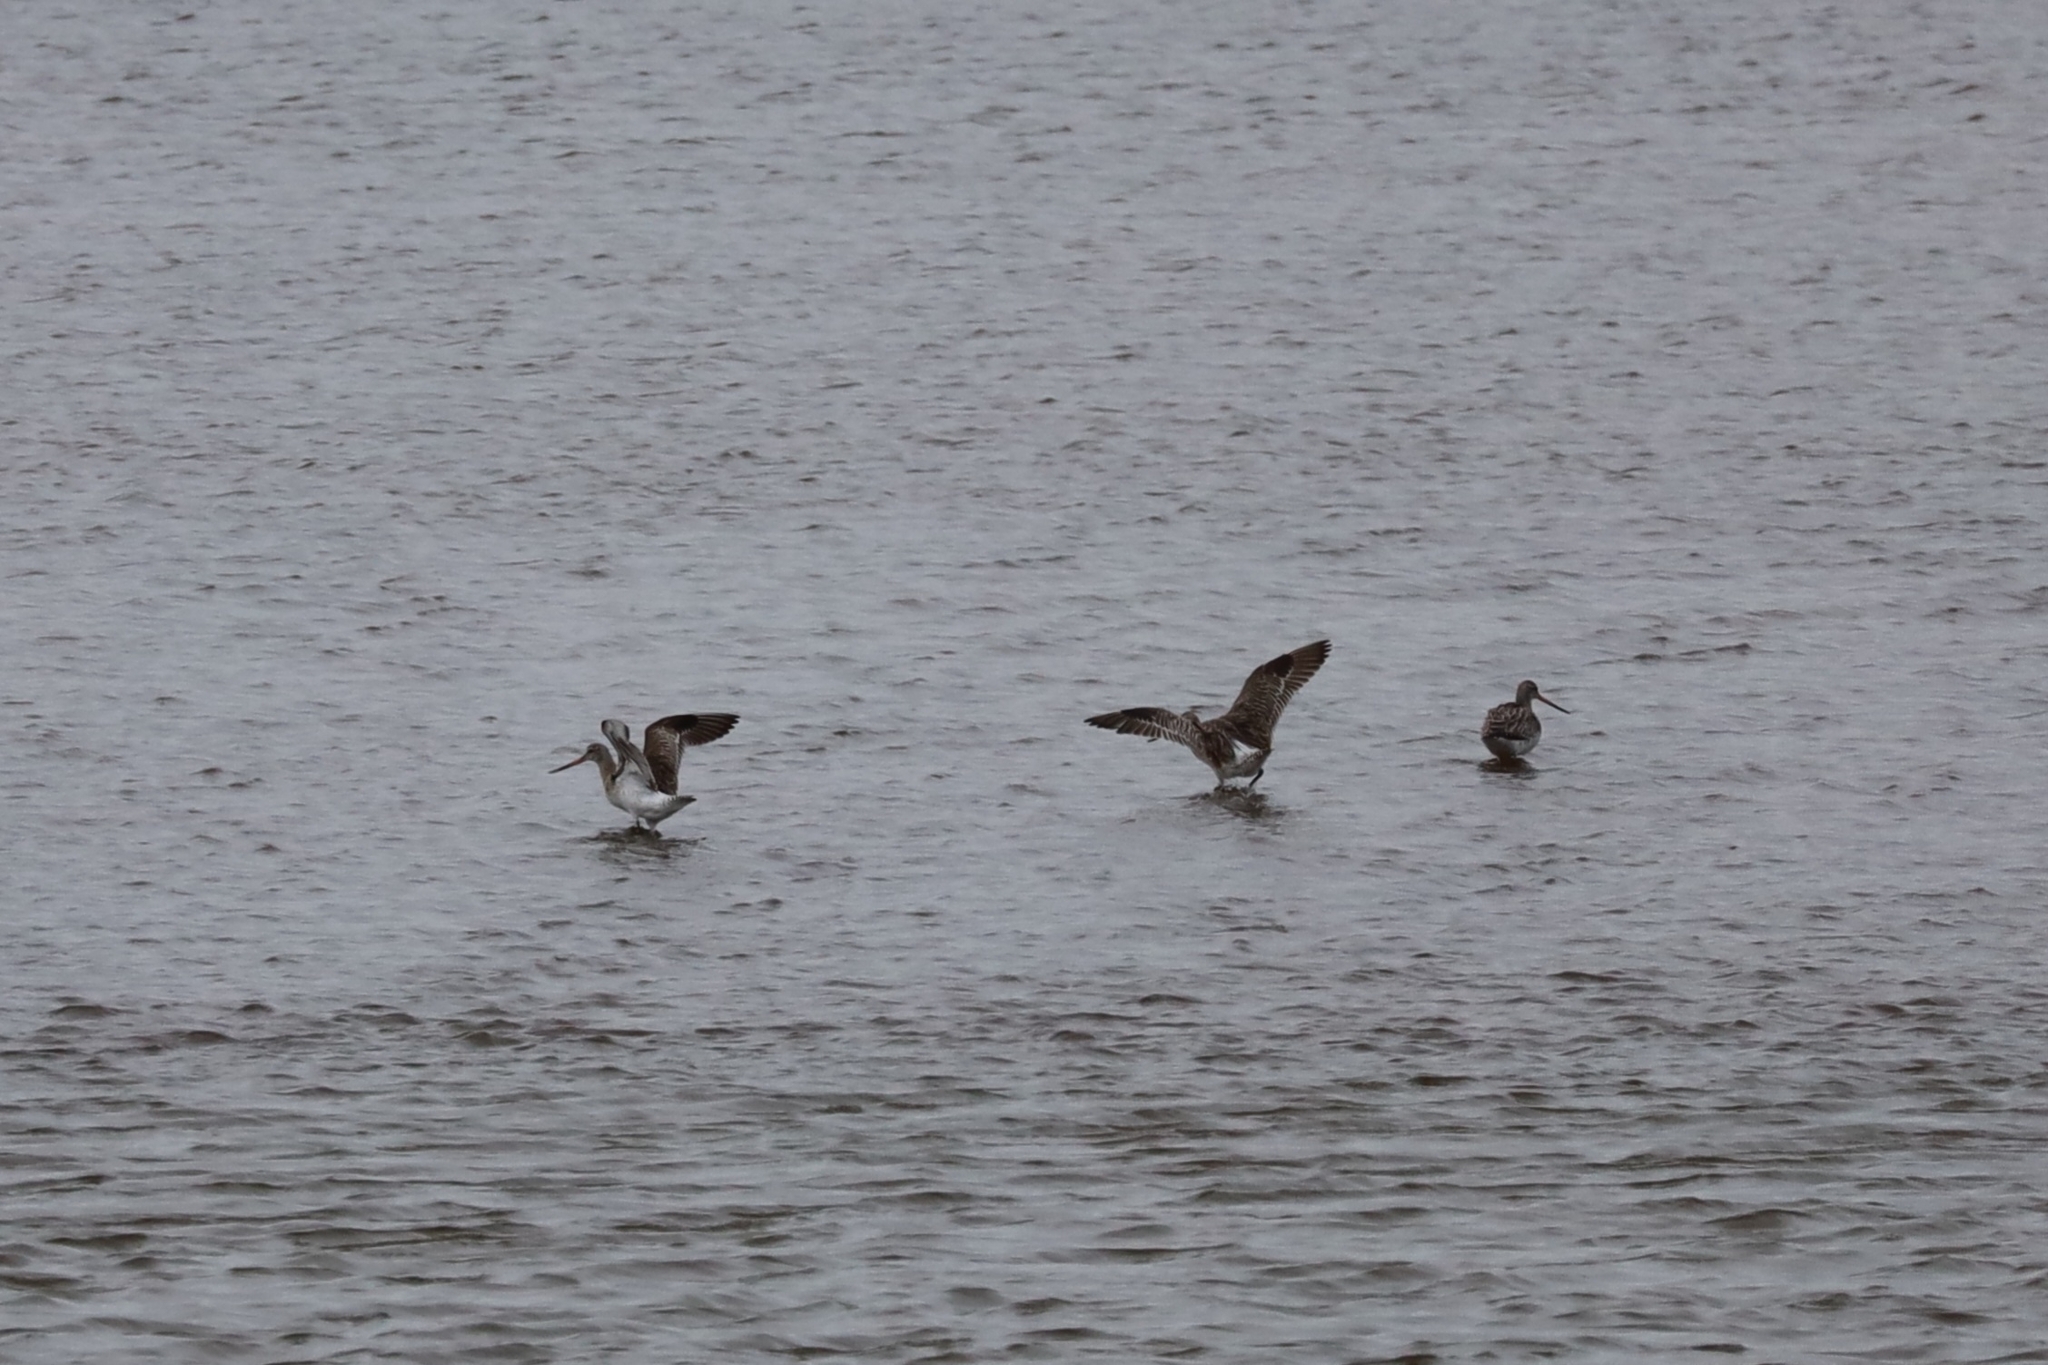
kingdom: Animalia
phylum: Chordata
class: Aves
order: Charadriiformes
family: Scolopacidae
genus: Limosa
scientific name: Limosa lapponica
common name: Bar-tailed godwit
